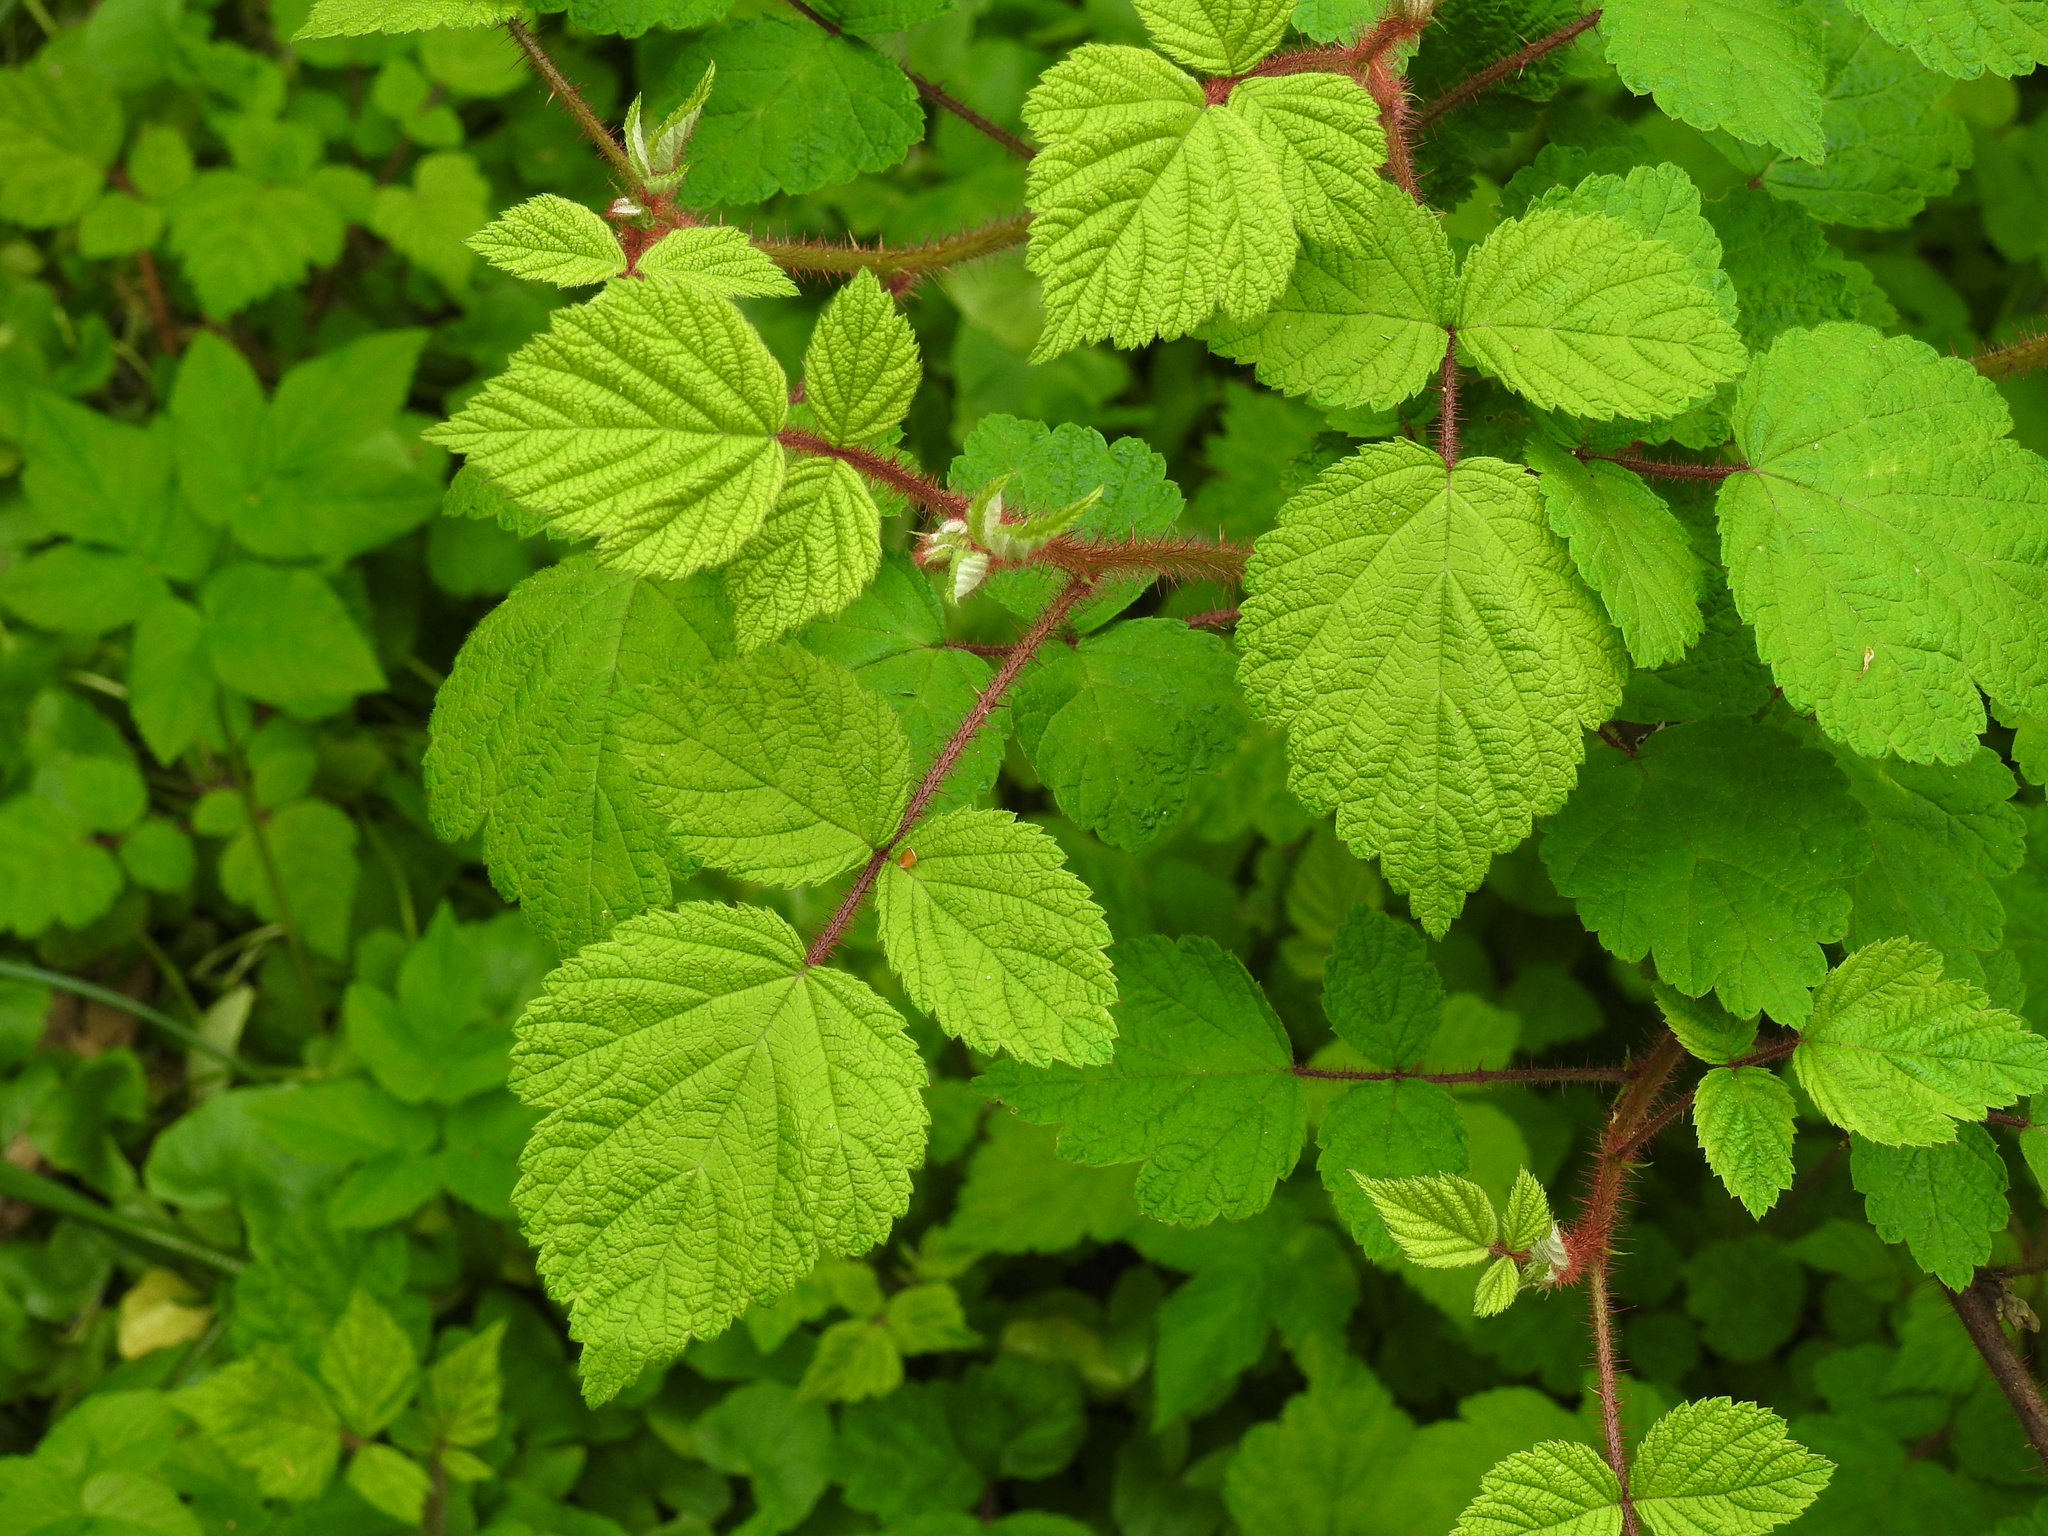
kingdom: Plantae
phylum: Tracheophyta
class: Magnoliopsida
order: Rosales
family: Rosaceae
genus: Rubus
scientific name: Rubus phoenicolasius
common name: Japanese wineberry
